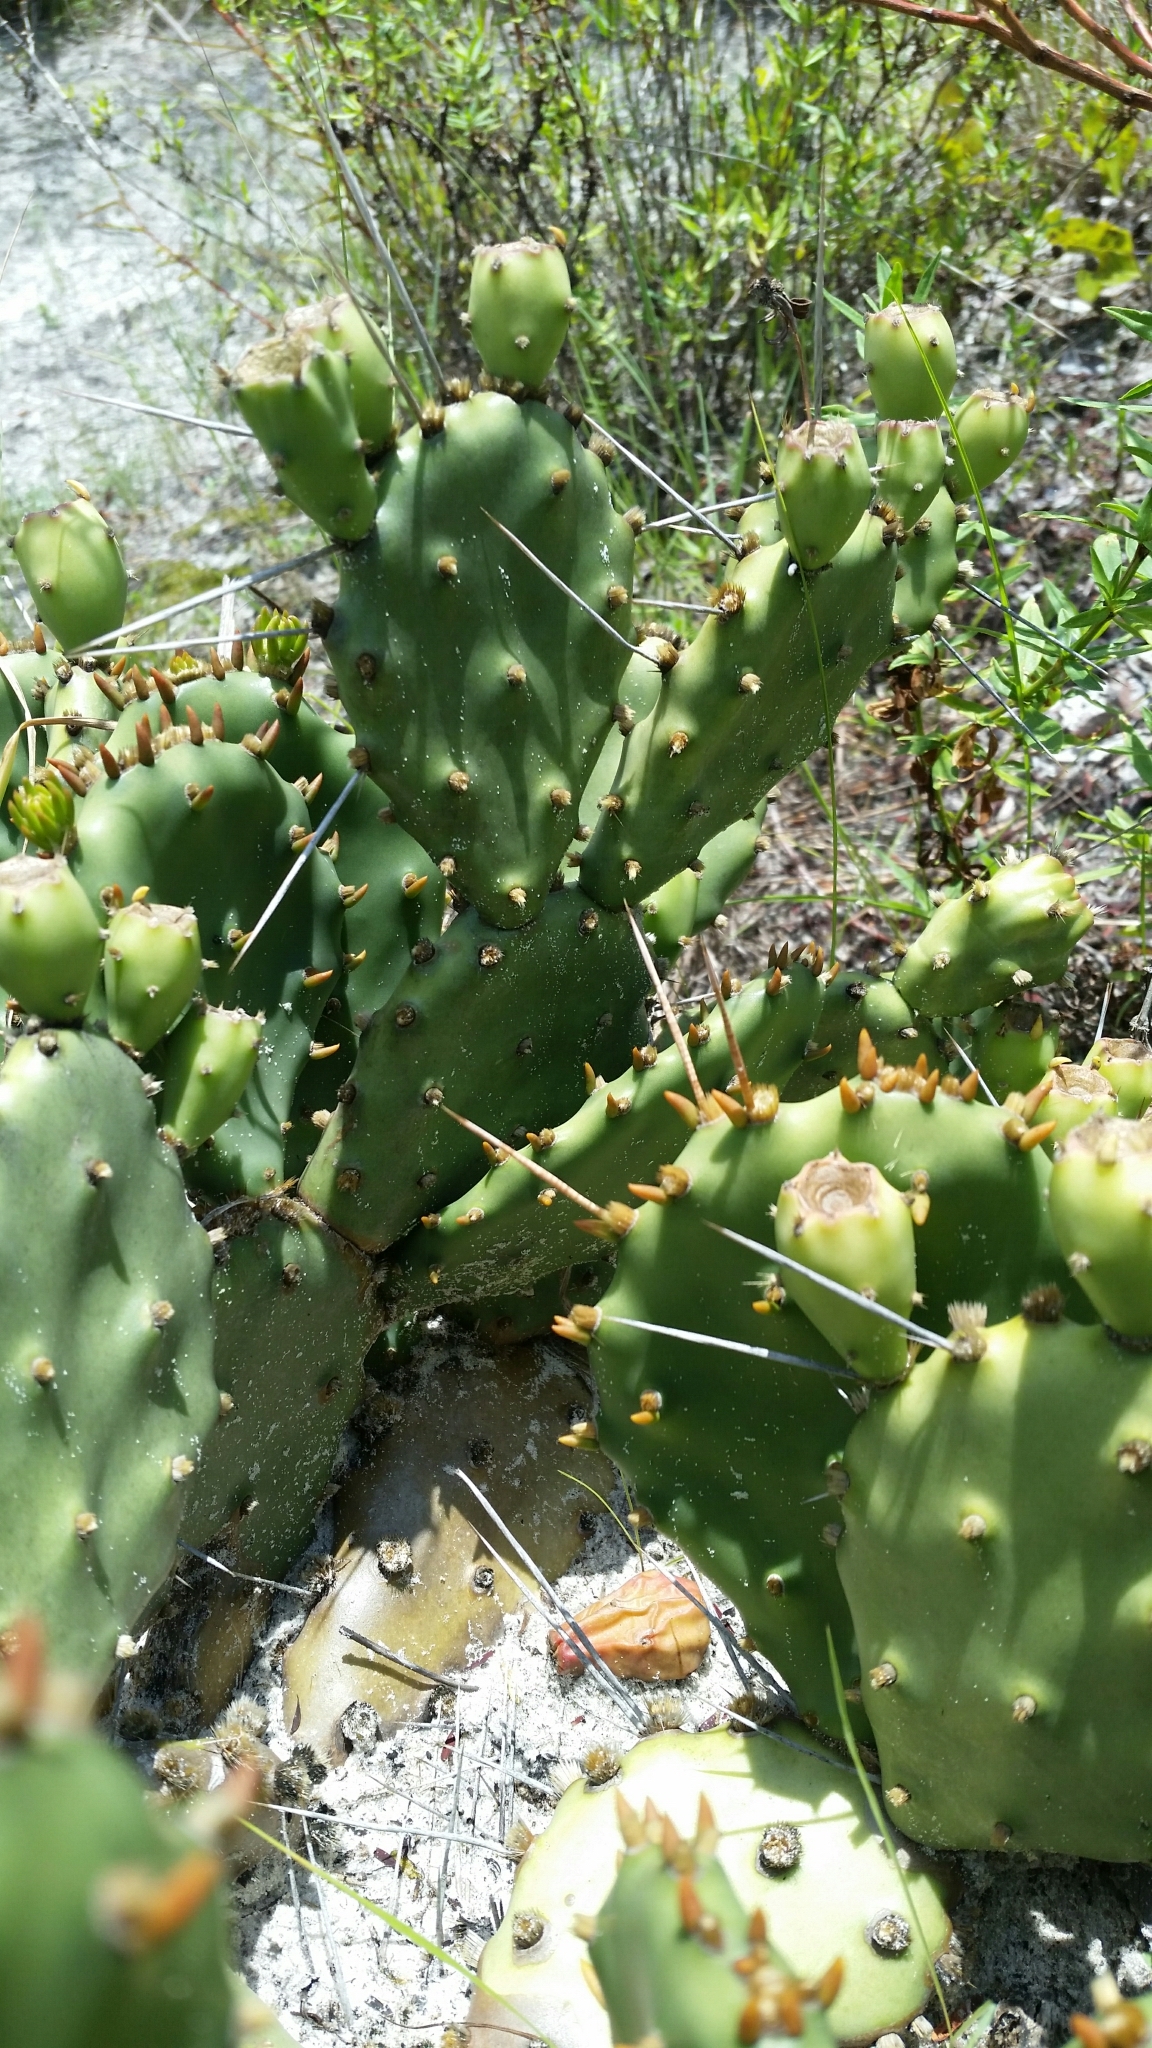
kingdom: Plantae
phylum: Tracheophyta
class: Magnoliopsida
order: Caryophyllales
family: Cactaceae
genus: Opuntia
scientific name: Opuntia mesacantha
